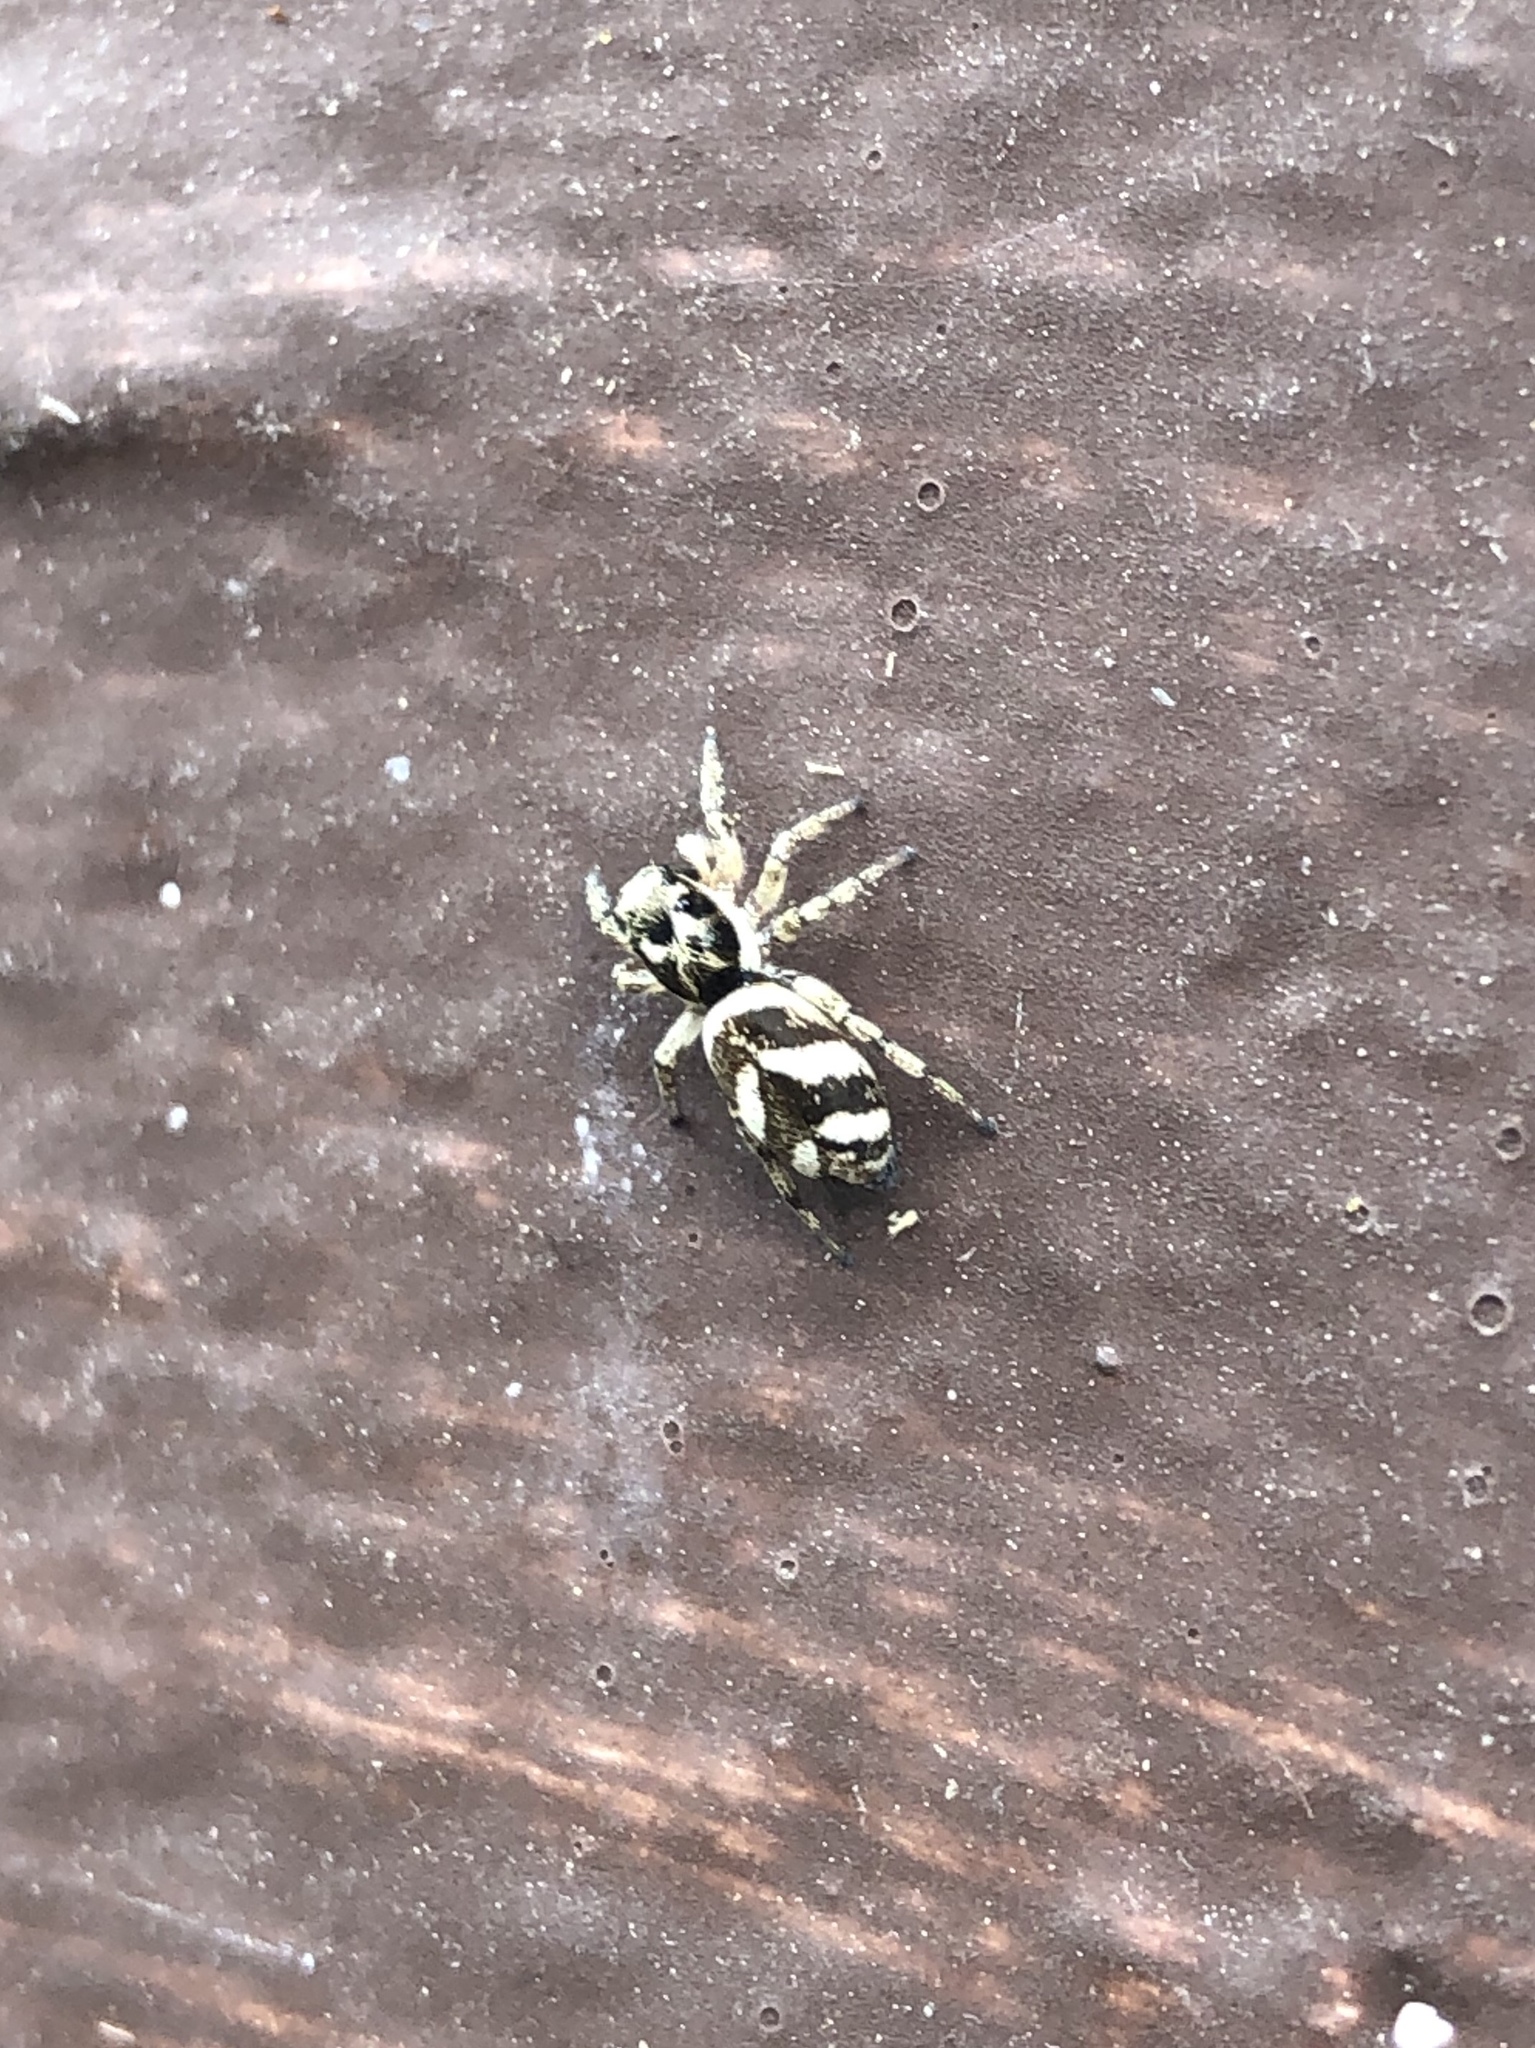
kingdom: Animalia
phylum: Arthropoda
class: Arachnida
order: Araneae
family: Salticidae
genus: Salticus
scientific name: Salticus scenicus
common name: Zebra jumper
